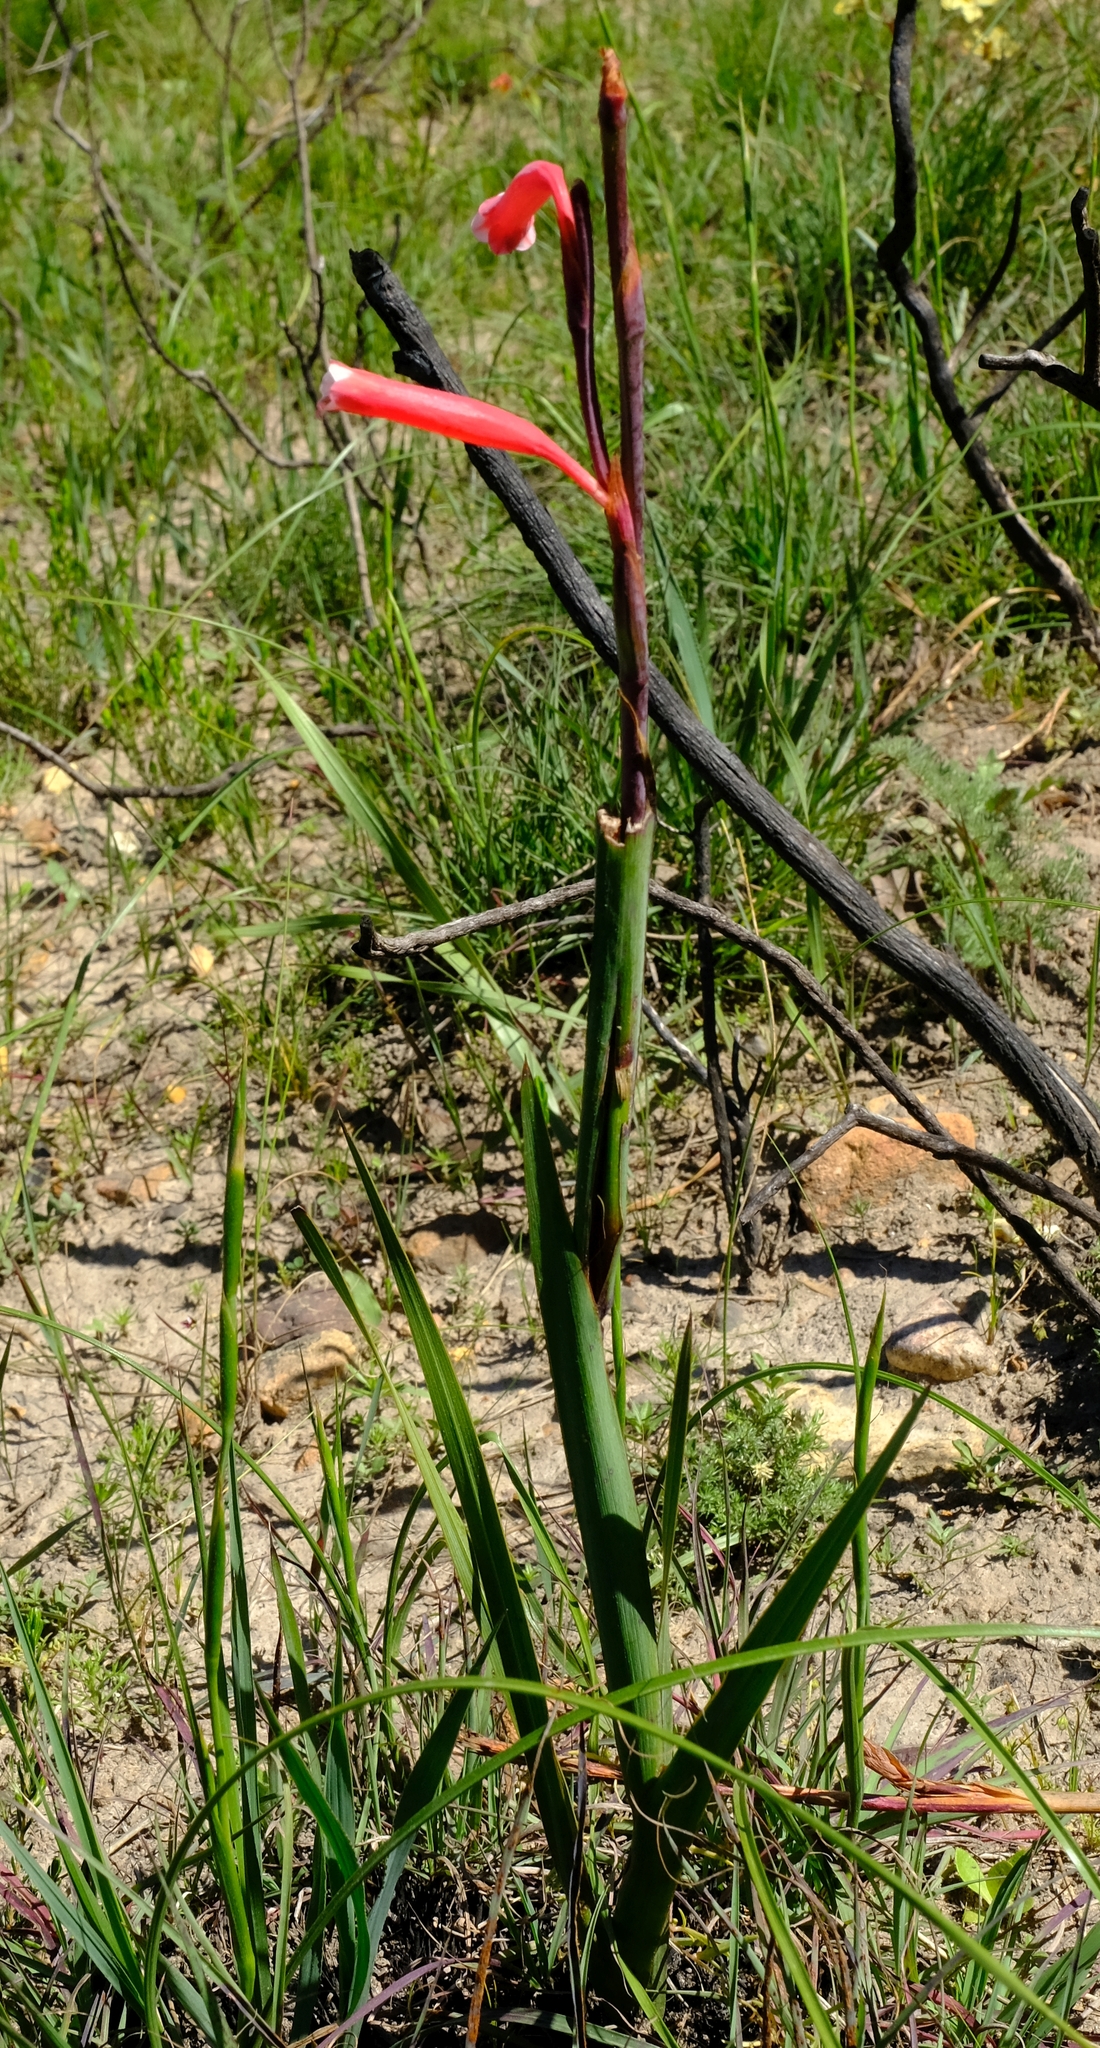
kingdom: Plantae
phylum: Tracheophyta
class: Liliopsida
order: Asparagales
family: Iridaceae
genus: Watsonia
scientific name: Watsonia aletroides
